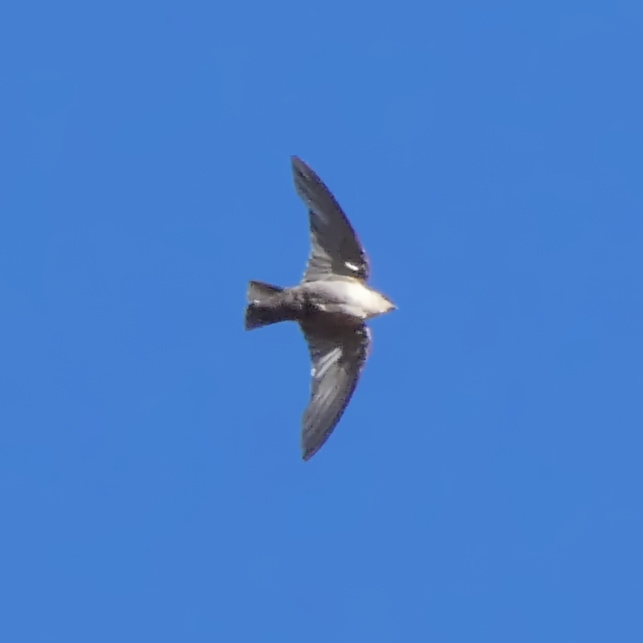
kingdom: Animalia
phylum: Chordata
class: Aves
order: Passeriformes
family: Hirundinidae
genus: Ptyonoprogne
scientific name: Ptyonoprogne fuligula
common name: Rock martin
